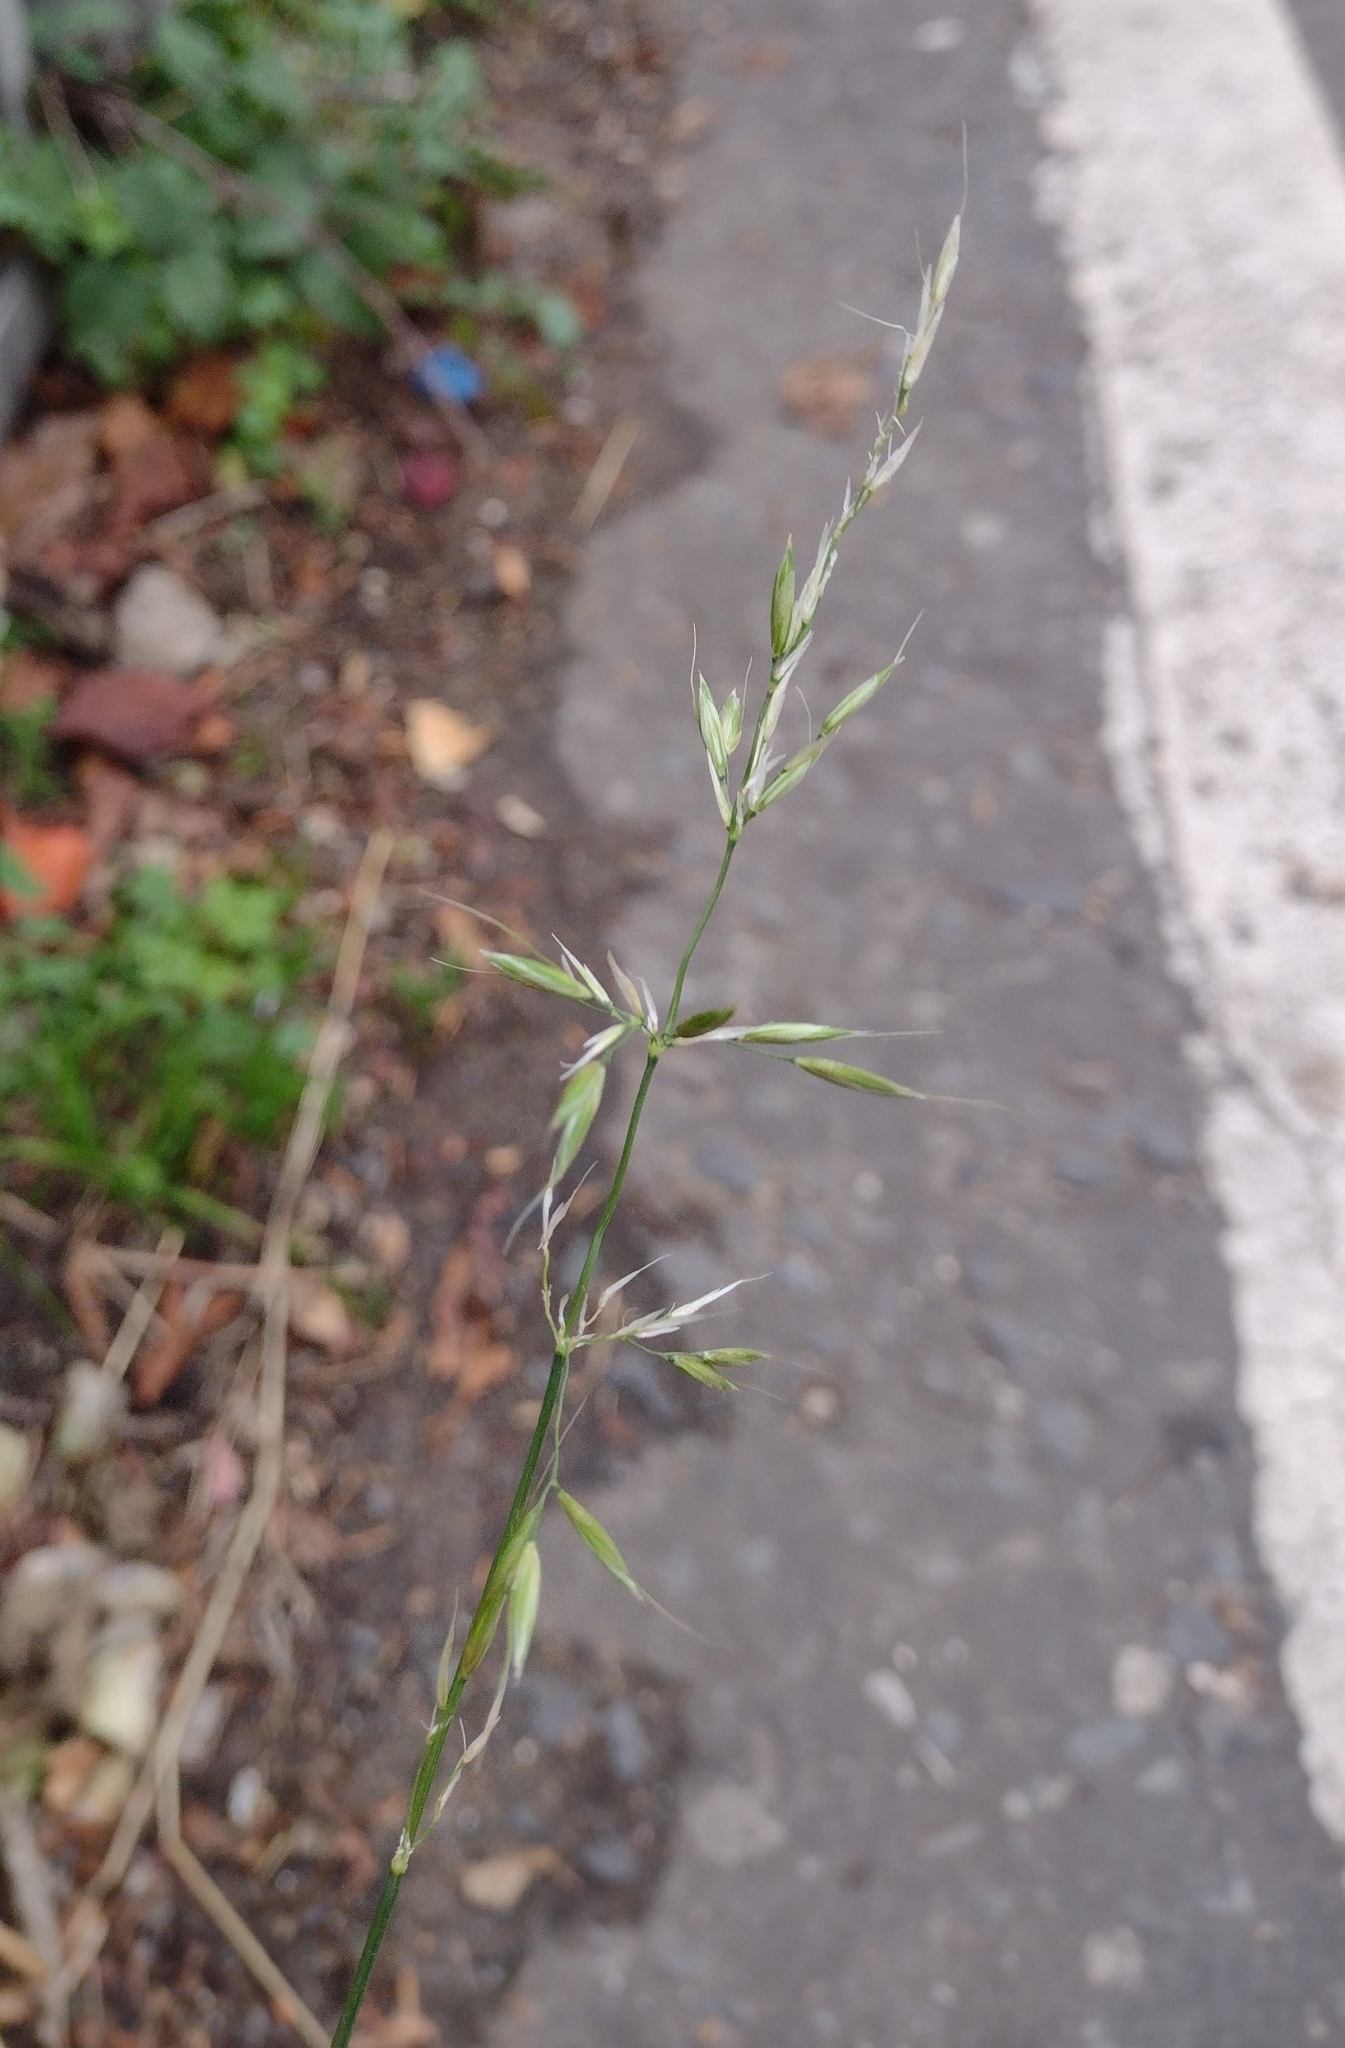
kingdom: Plantae
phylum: Tracheophyta
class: Liliopsida
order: Poales
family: Poaceae
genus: Arrhenatherum
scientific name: Arrhenatherum elatius
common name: Tall oatgrass
